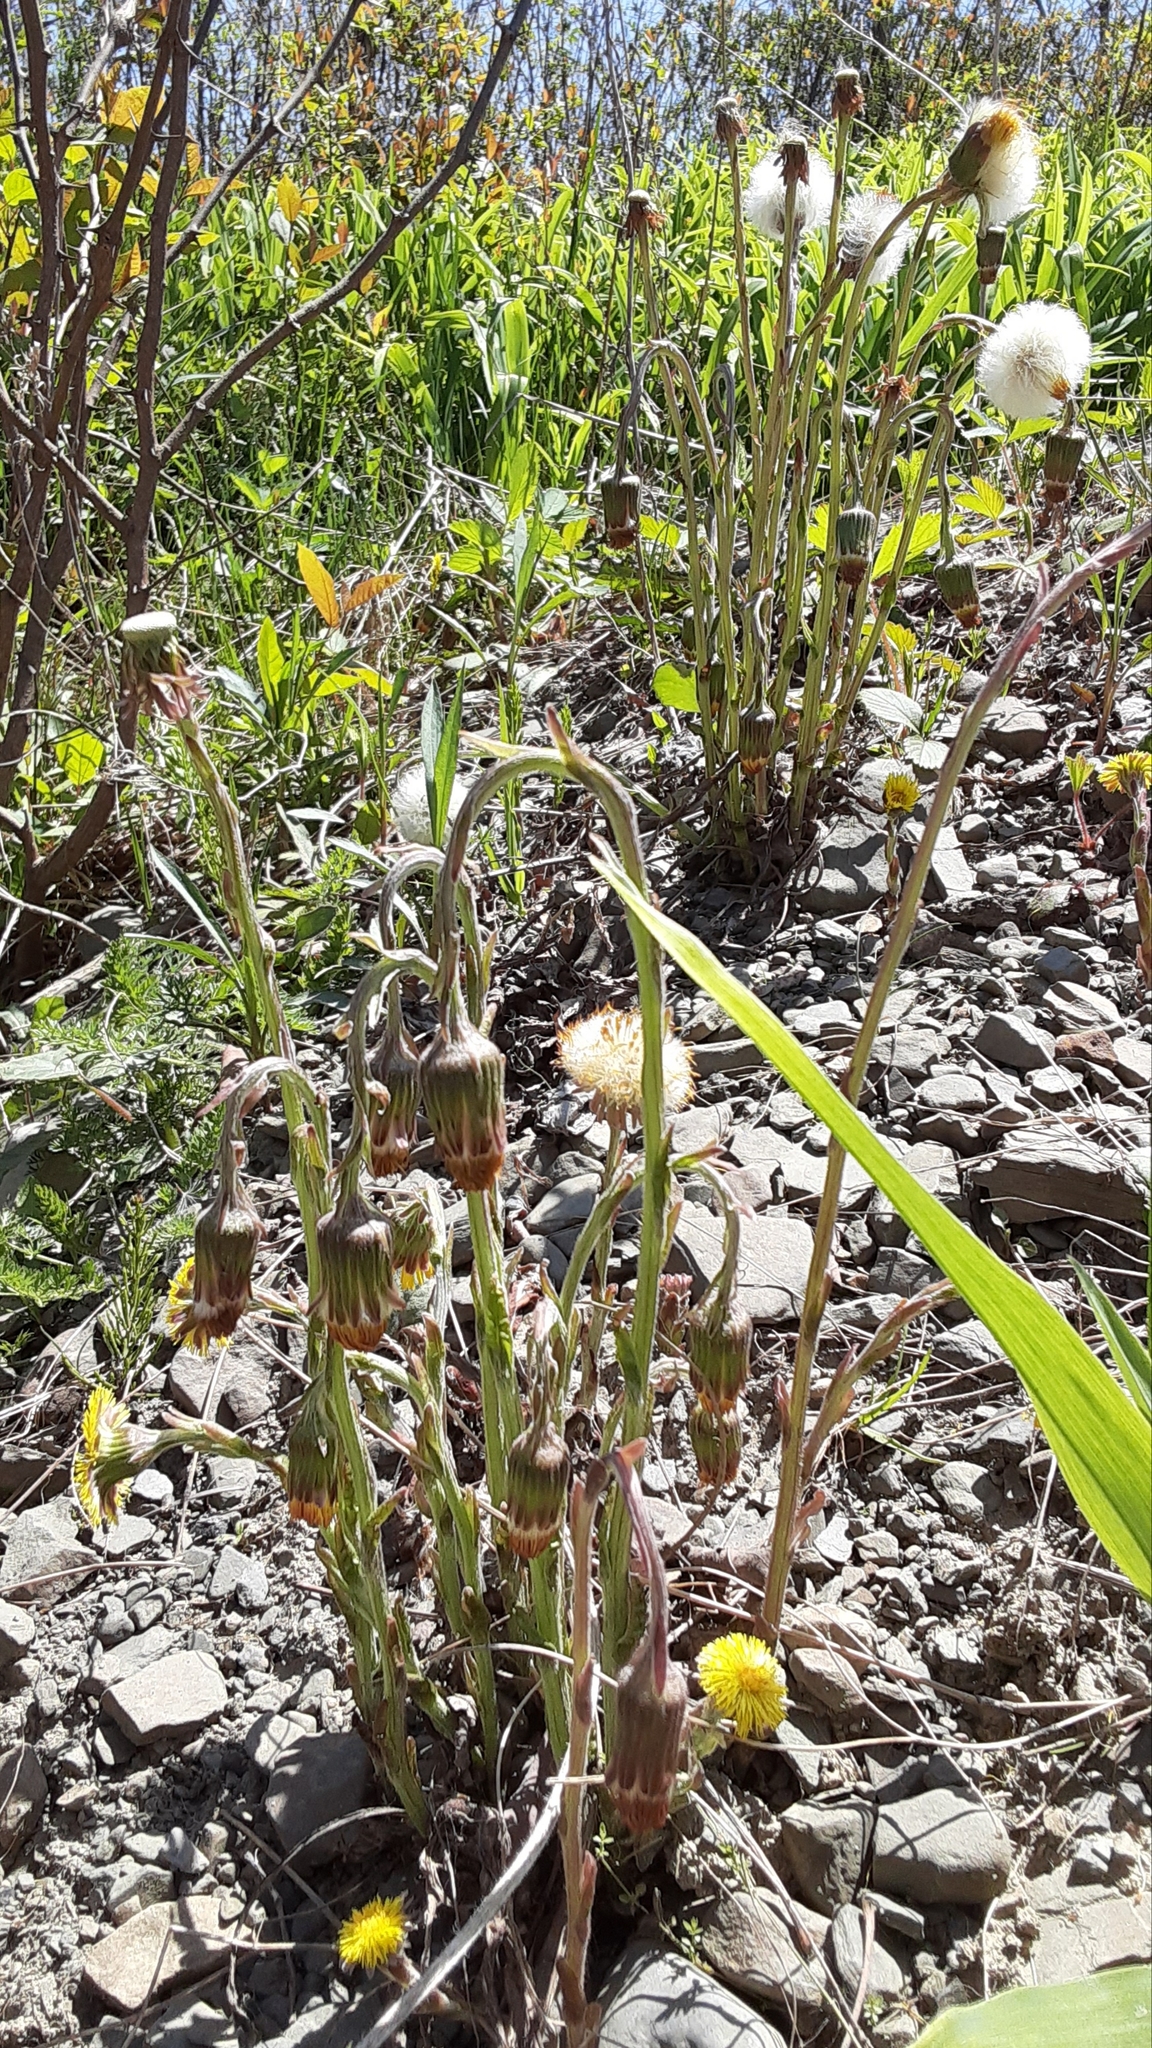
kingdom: Plantae
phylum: Tracheophyta
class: Magnoliopsida
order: Asterales
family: Asteraceae
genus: Tussilago
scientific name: Tussilago farfara
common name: Coltsfoot
